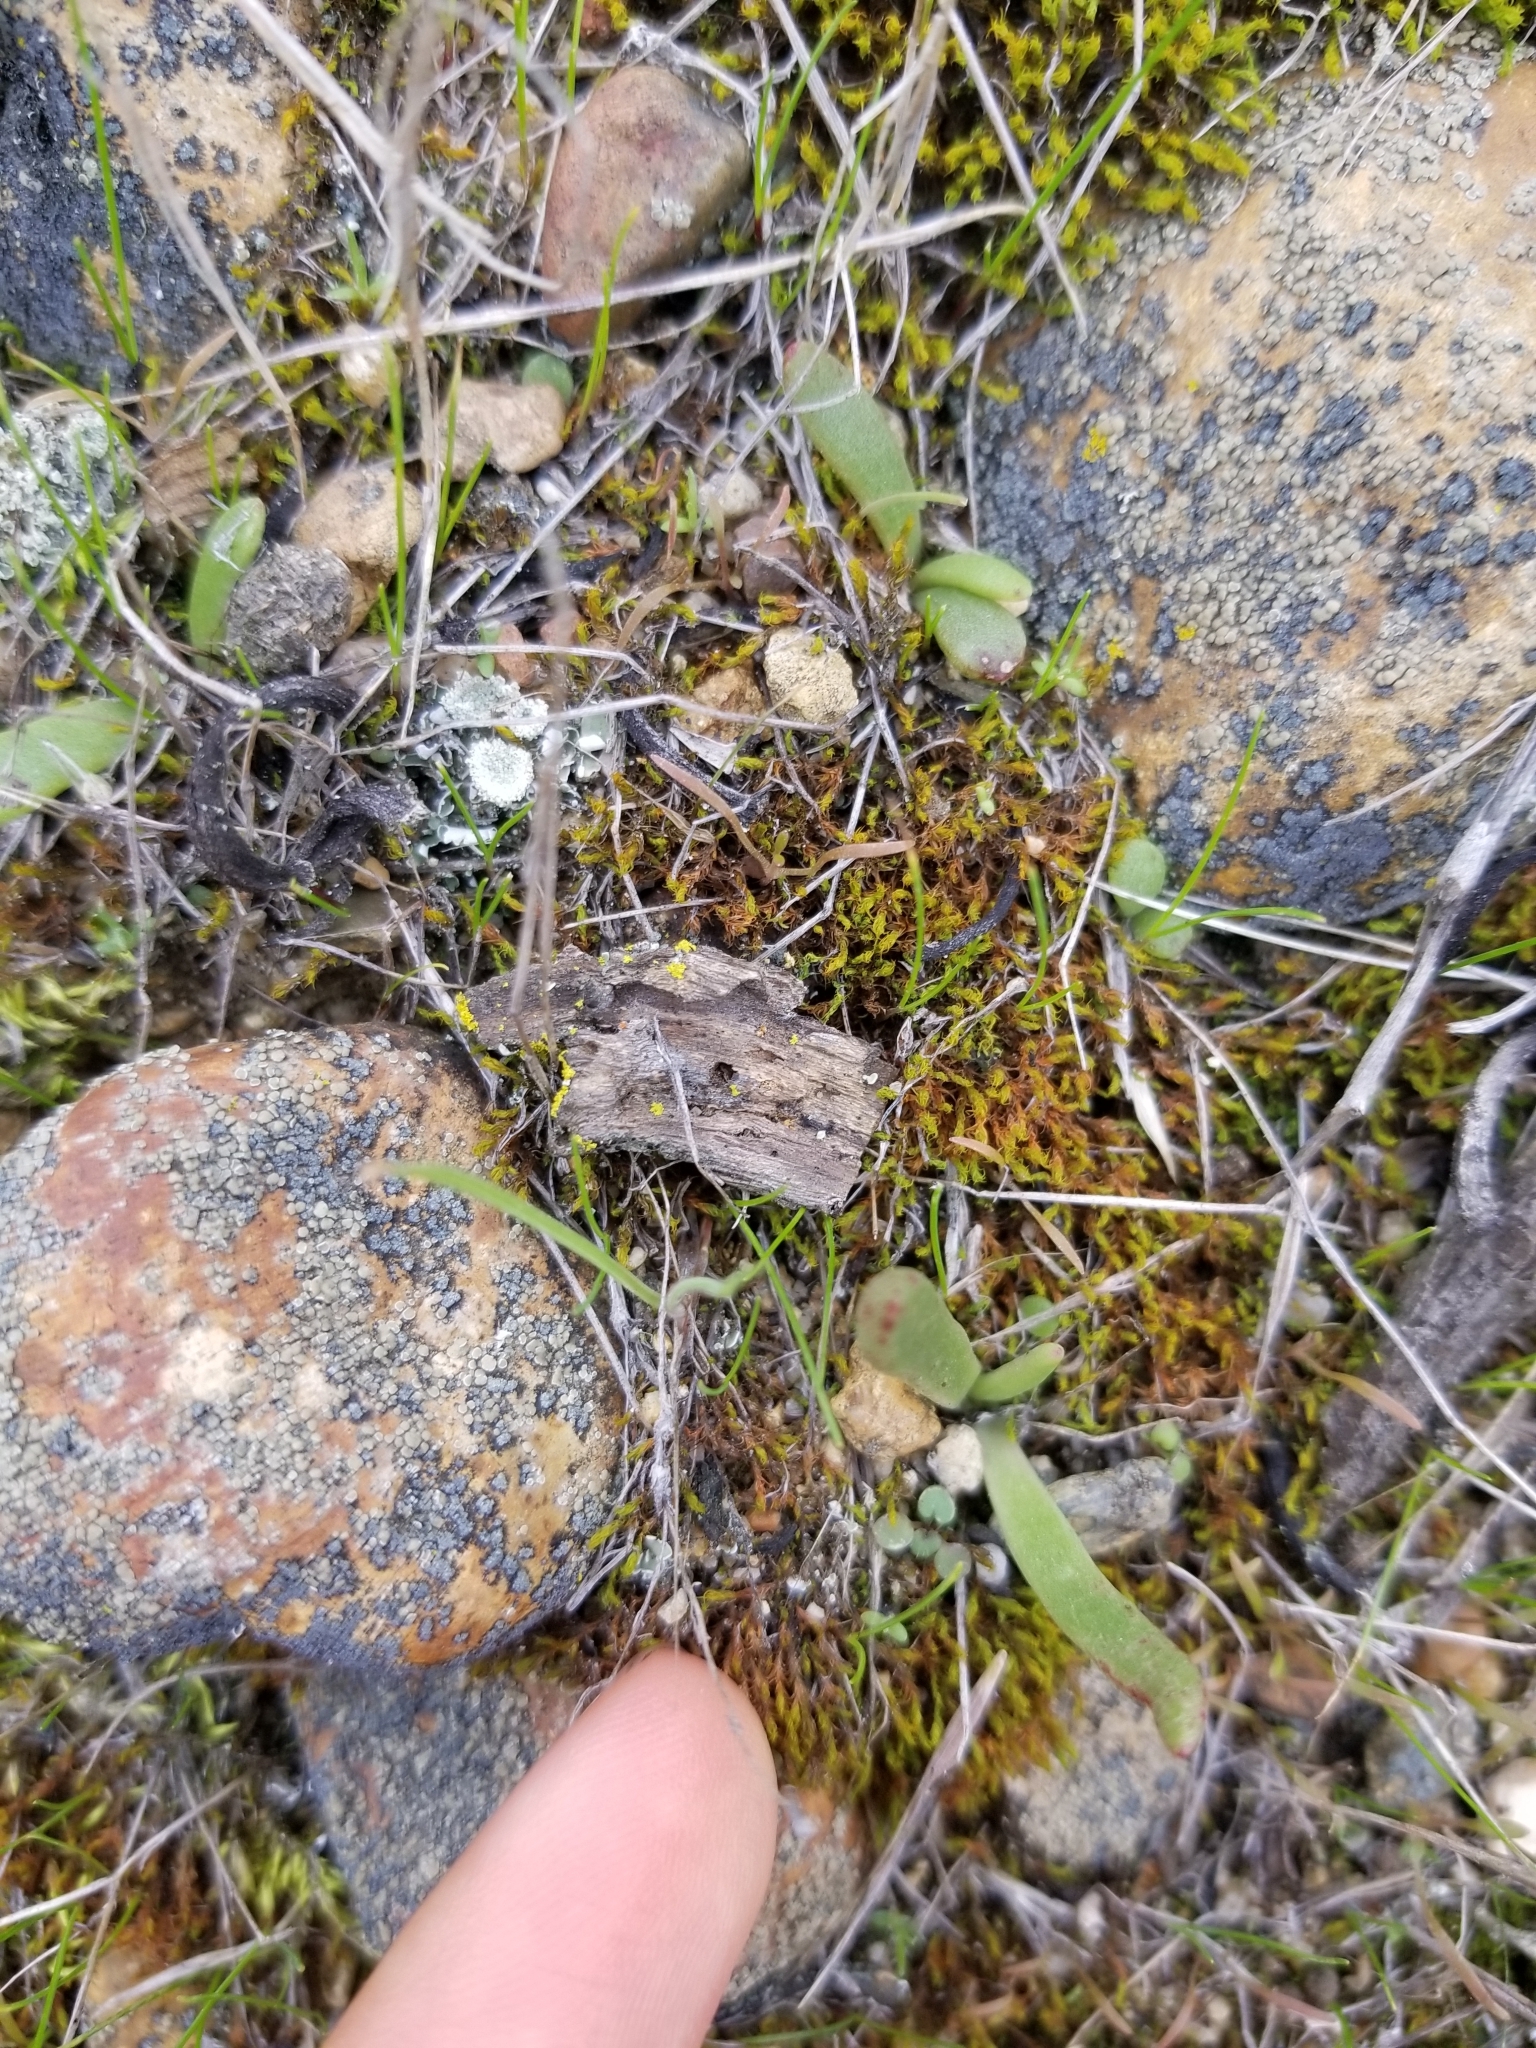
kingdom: Plantae
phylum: Tracheophyta
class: Magnoliopsida
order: Saxifragales
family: Crassulaceae
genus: Dudleya
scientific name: Dudleya edulis
